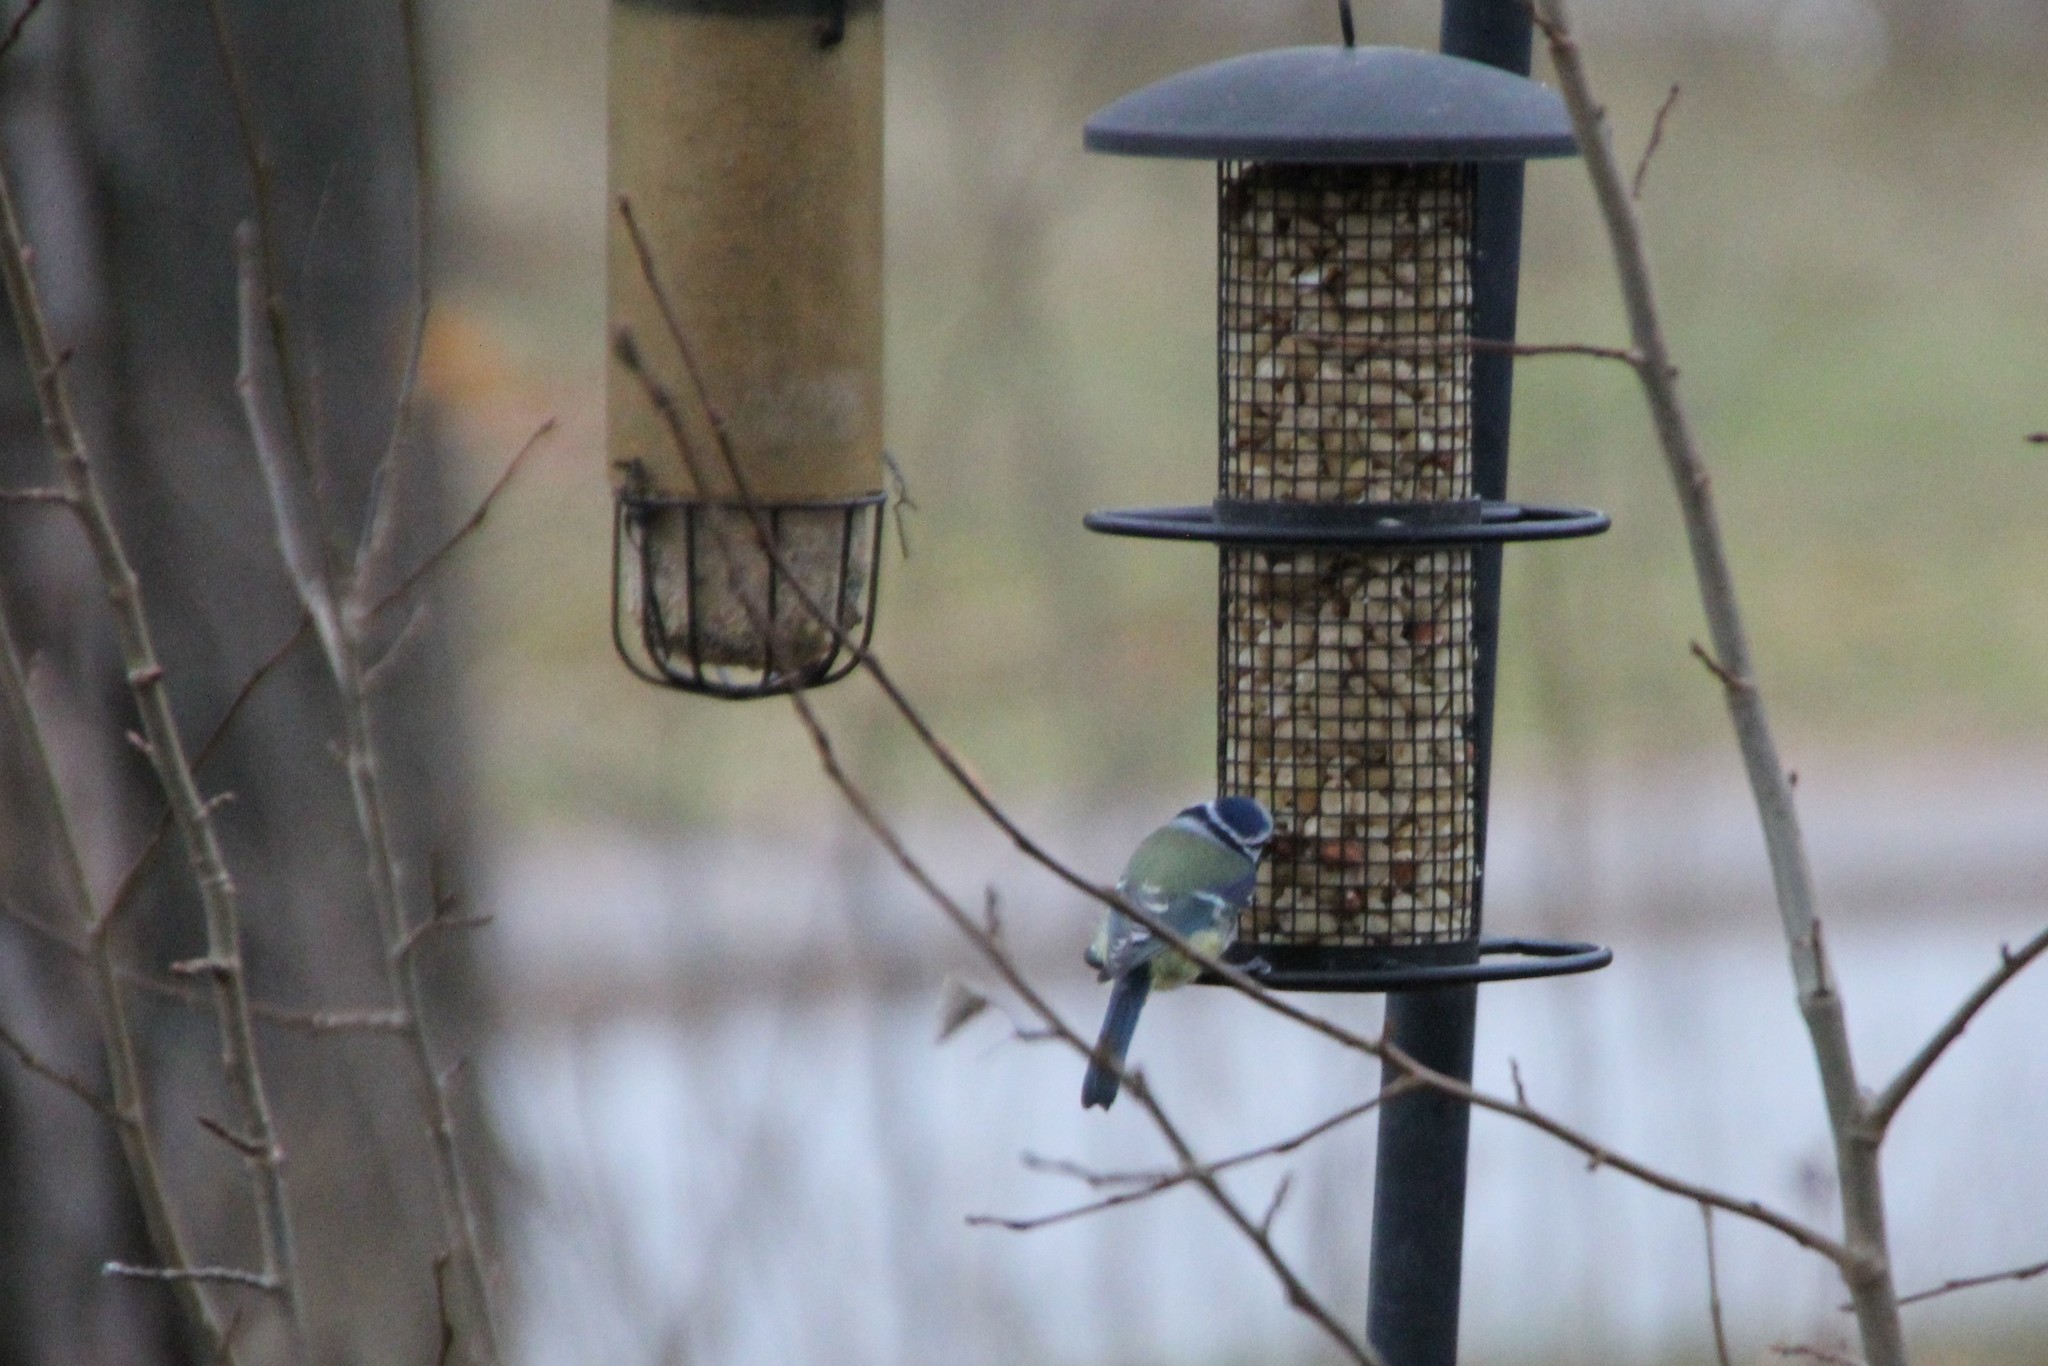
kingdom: Animalia
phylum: Chordata
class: Aves
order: Passeriformes
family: Paridae
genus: Cyanistes
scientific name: Cyanistes caeruleus
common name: Eurasian blue tit
